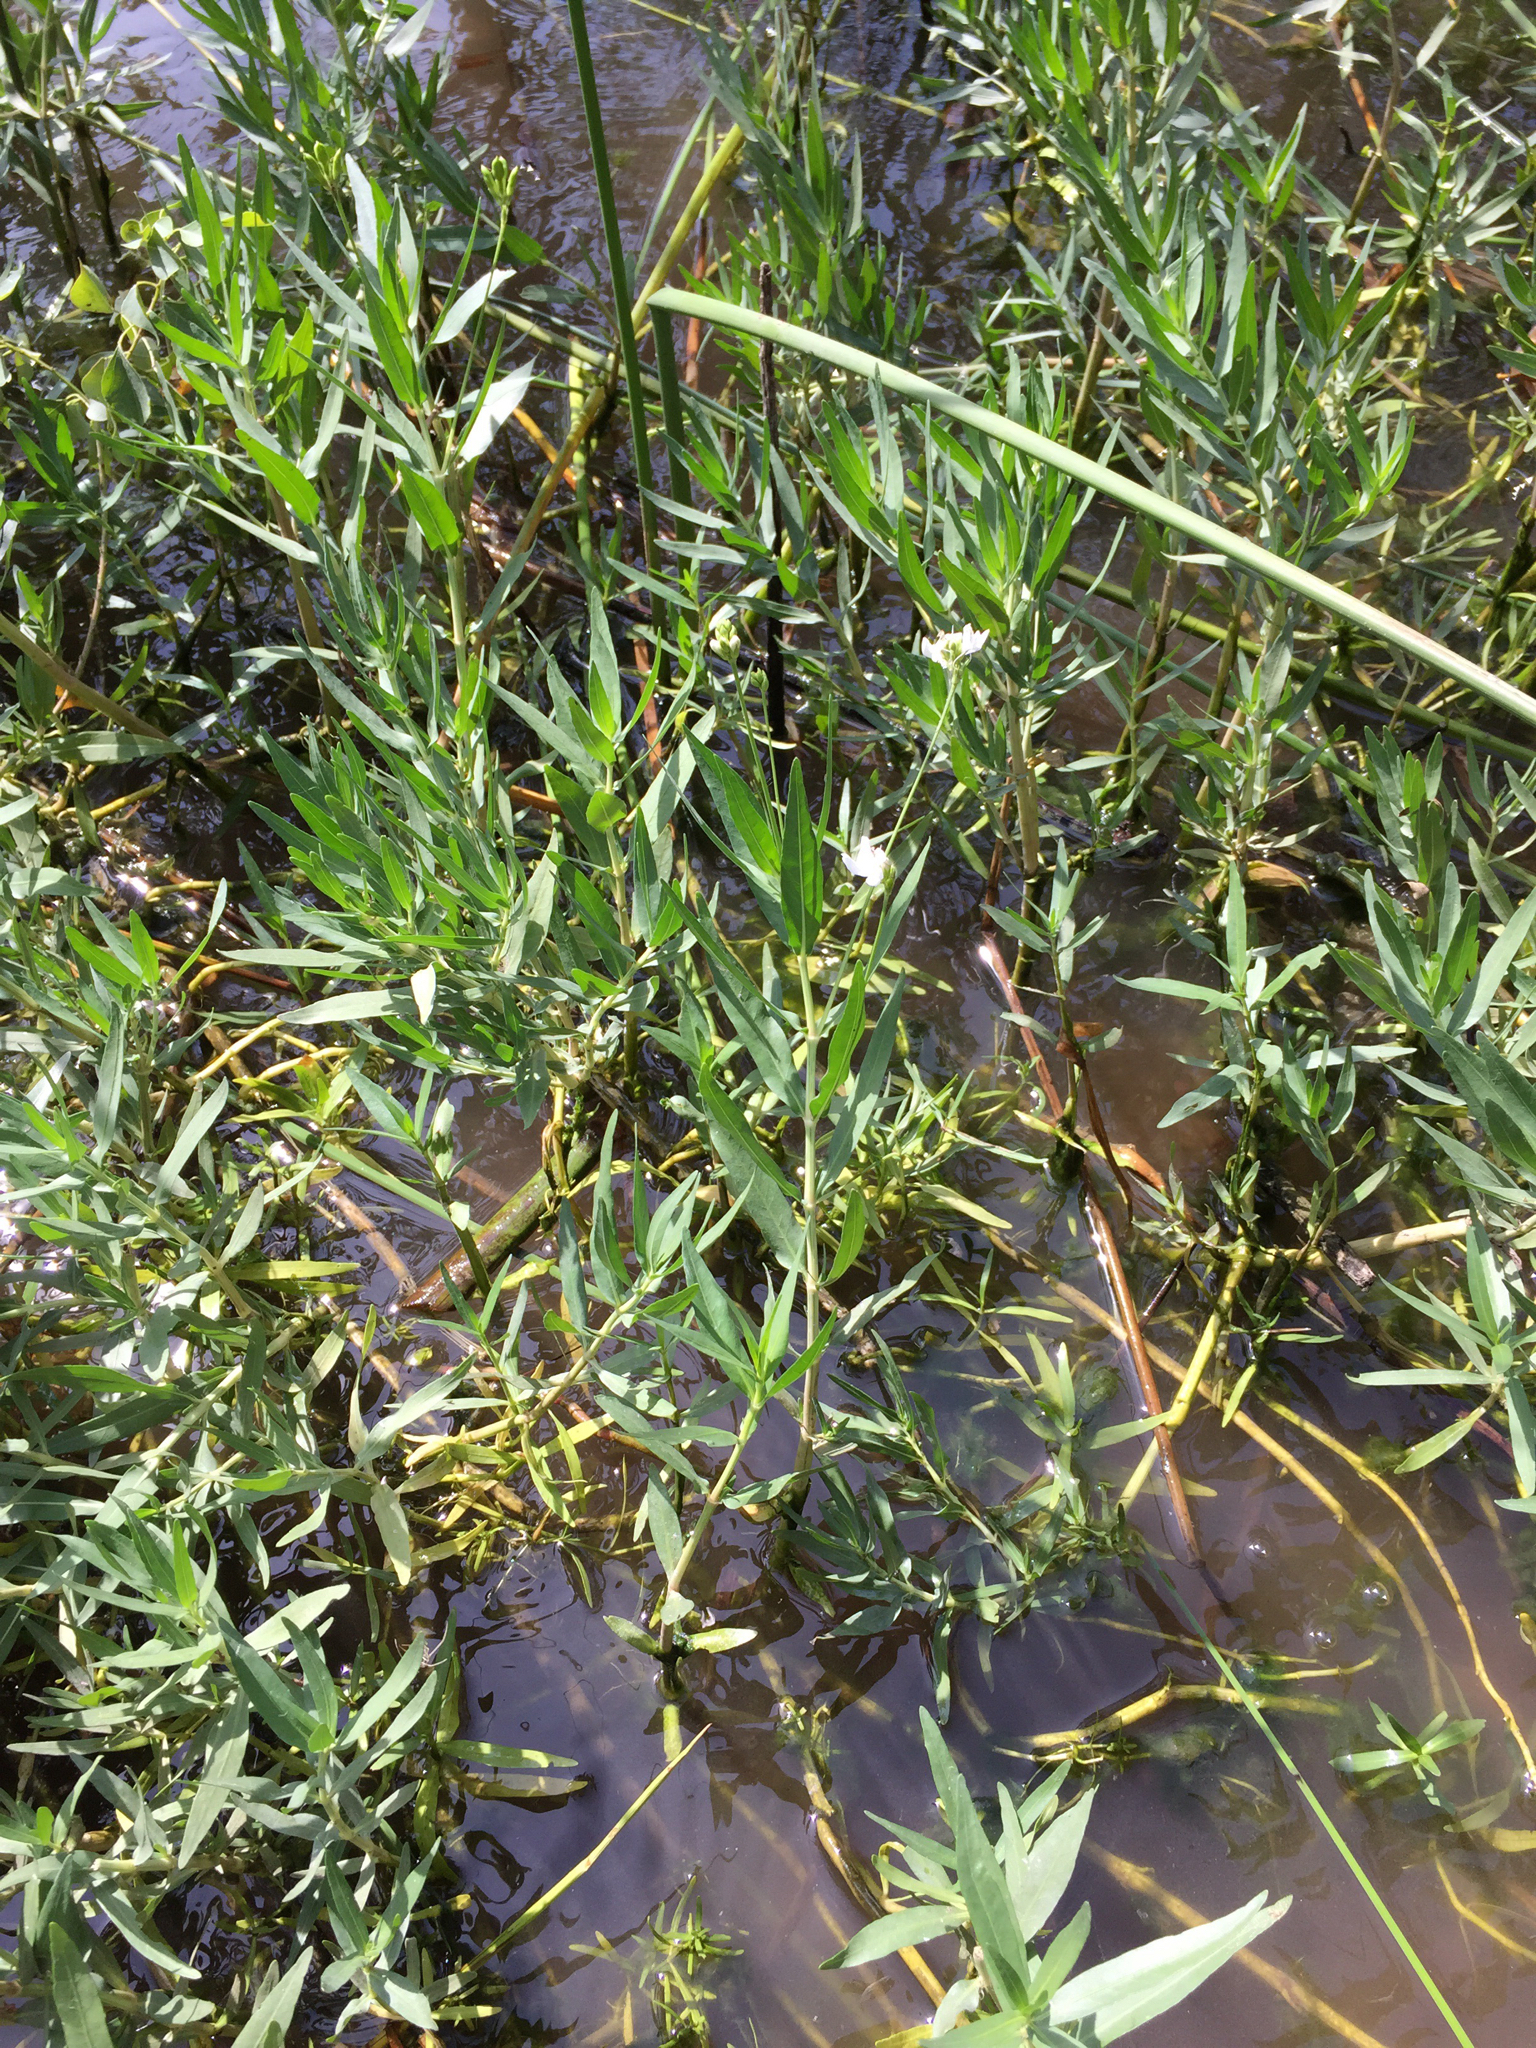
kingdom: Plantae
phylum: Tracheophyta
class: Magnoliopsida
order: Lamiales
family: Acanthaceae
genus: Dianthera
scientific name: Dianthera americana
